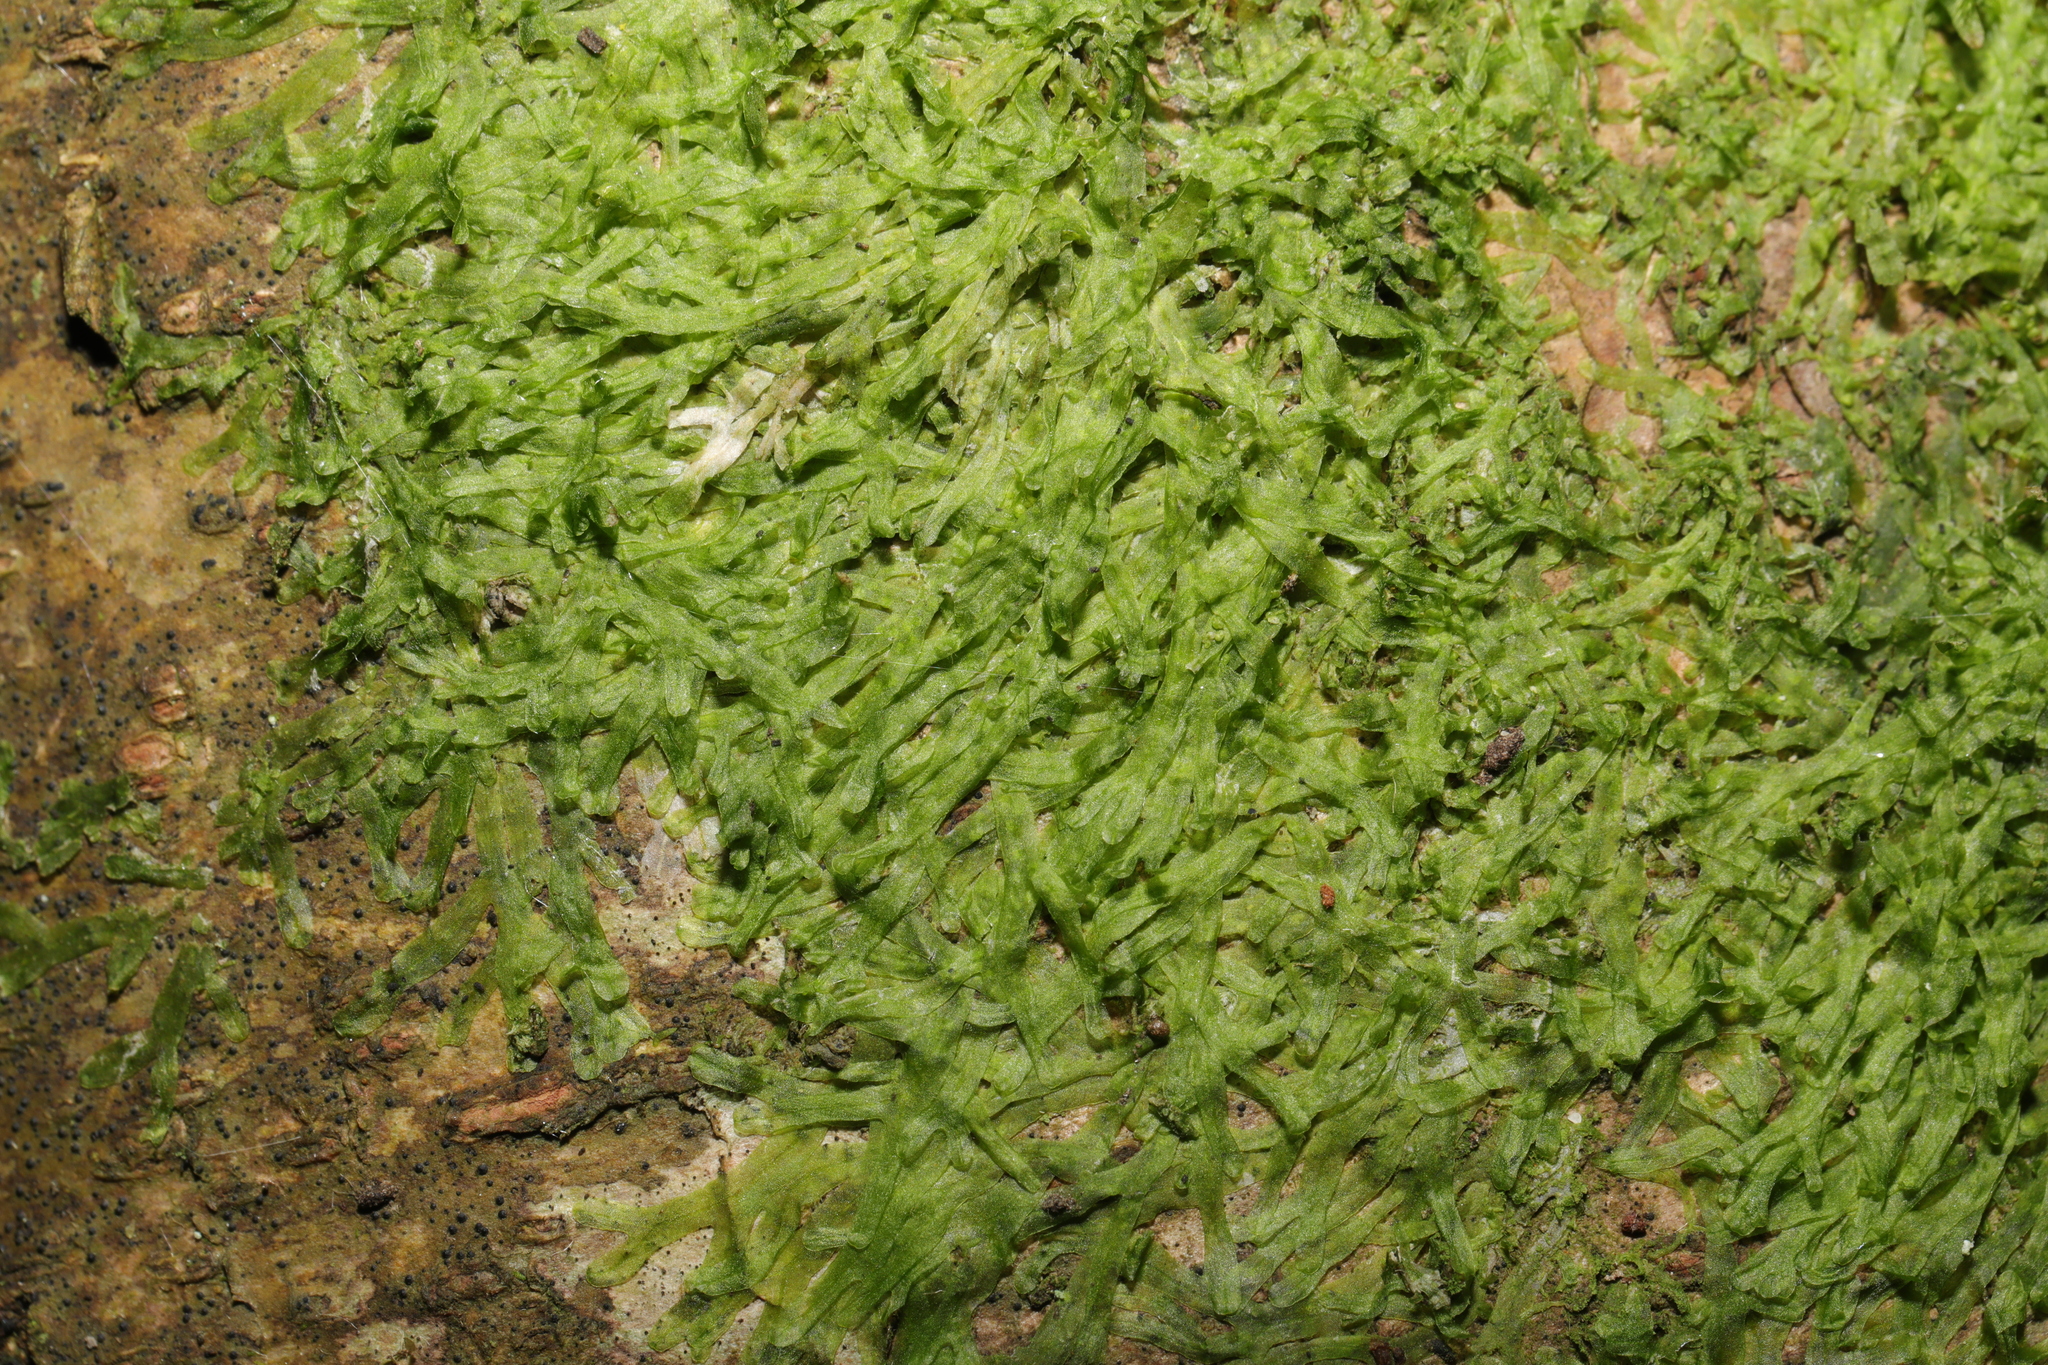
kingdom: Plantae
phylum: Marchantiophyta
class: Jungermanniopsida
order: Metzgeriales
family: Metzgeriaceae
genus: Metzgeria
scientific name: Metzgeria furcata
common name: Forked veilwort
